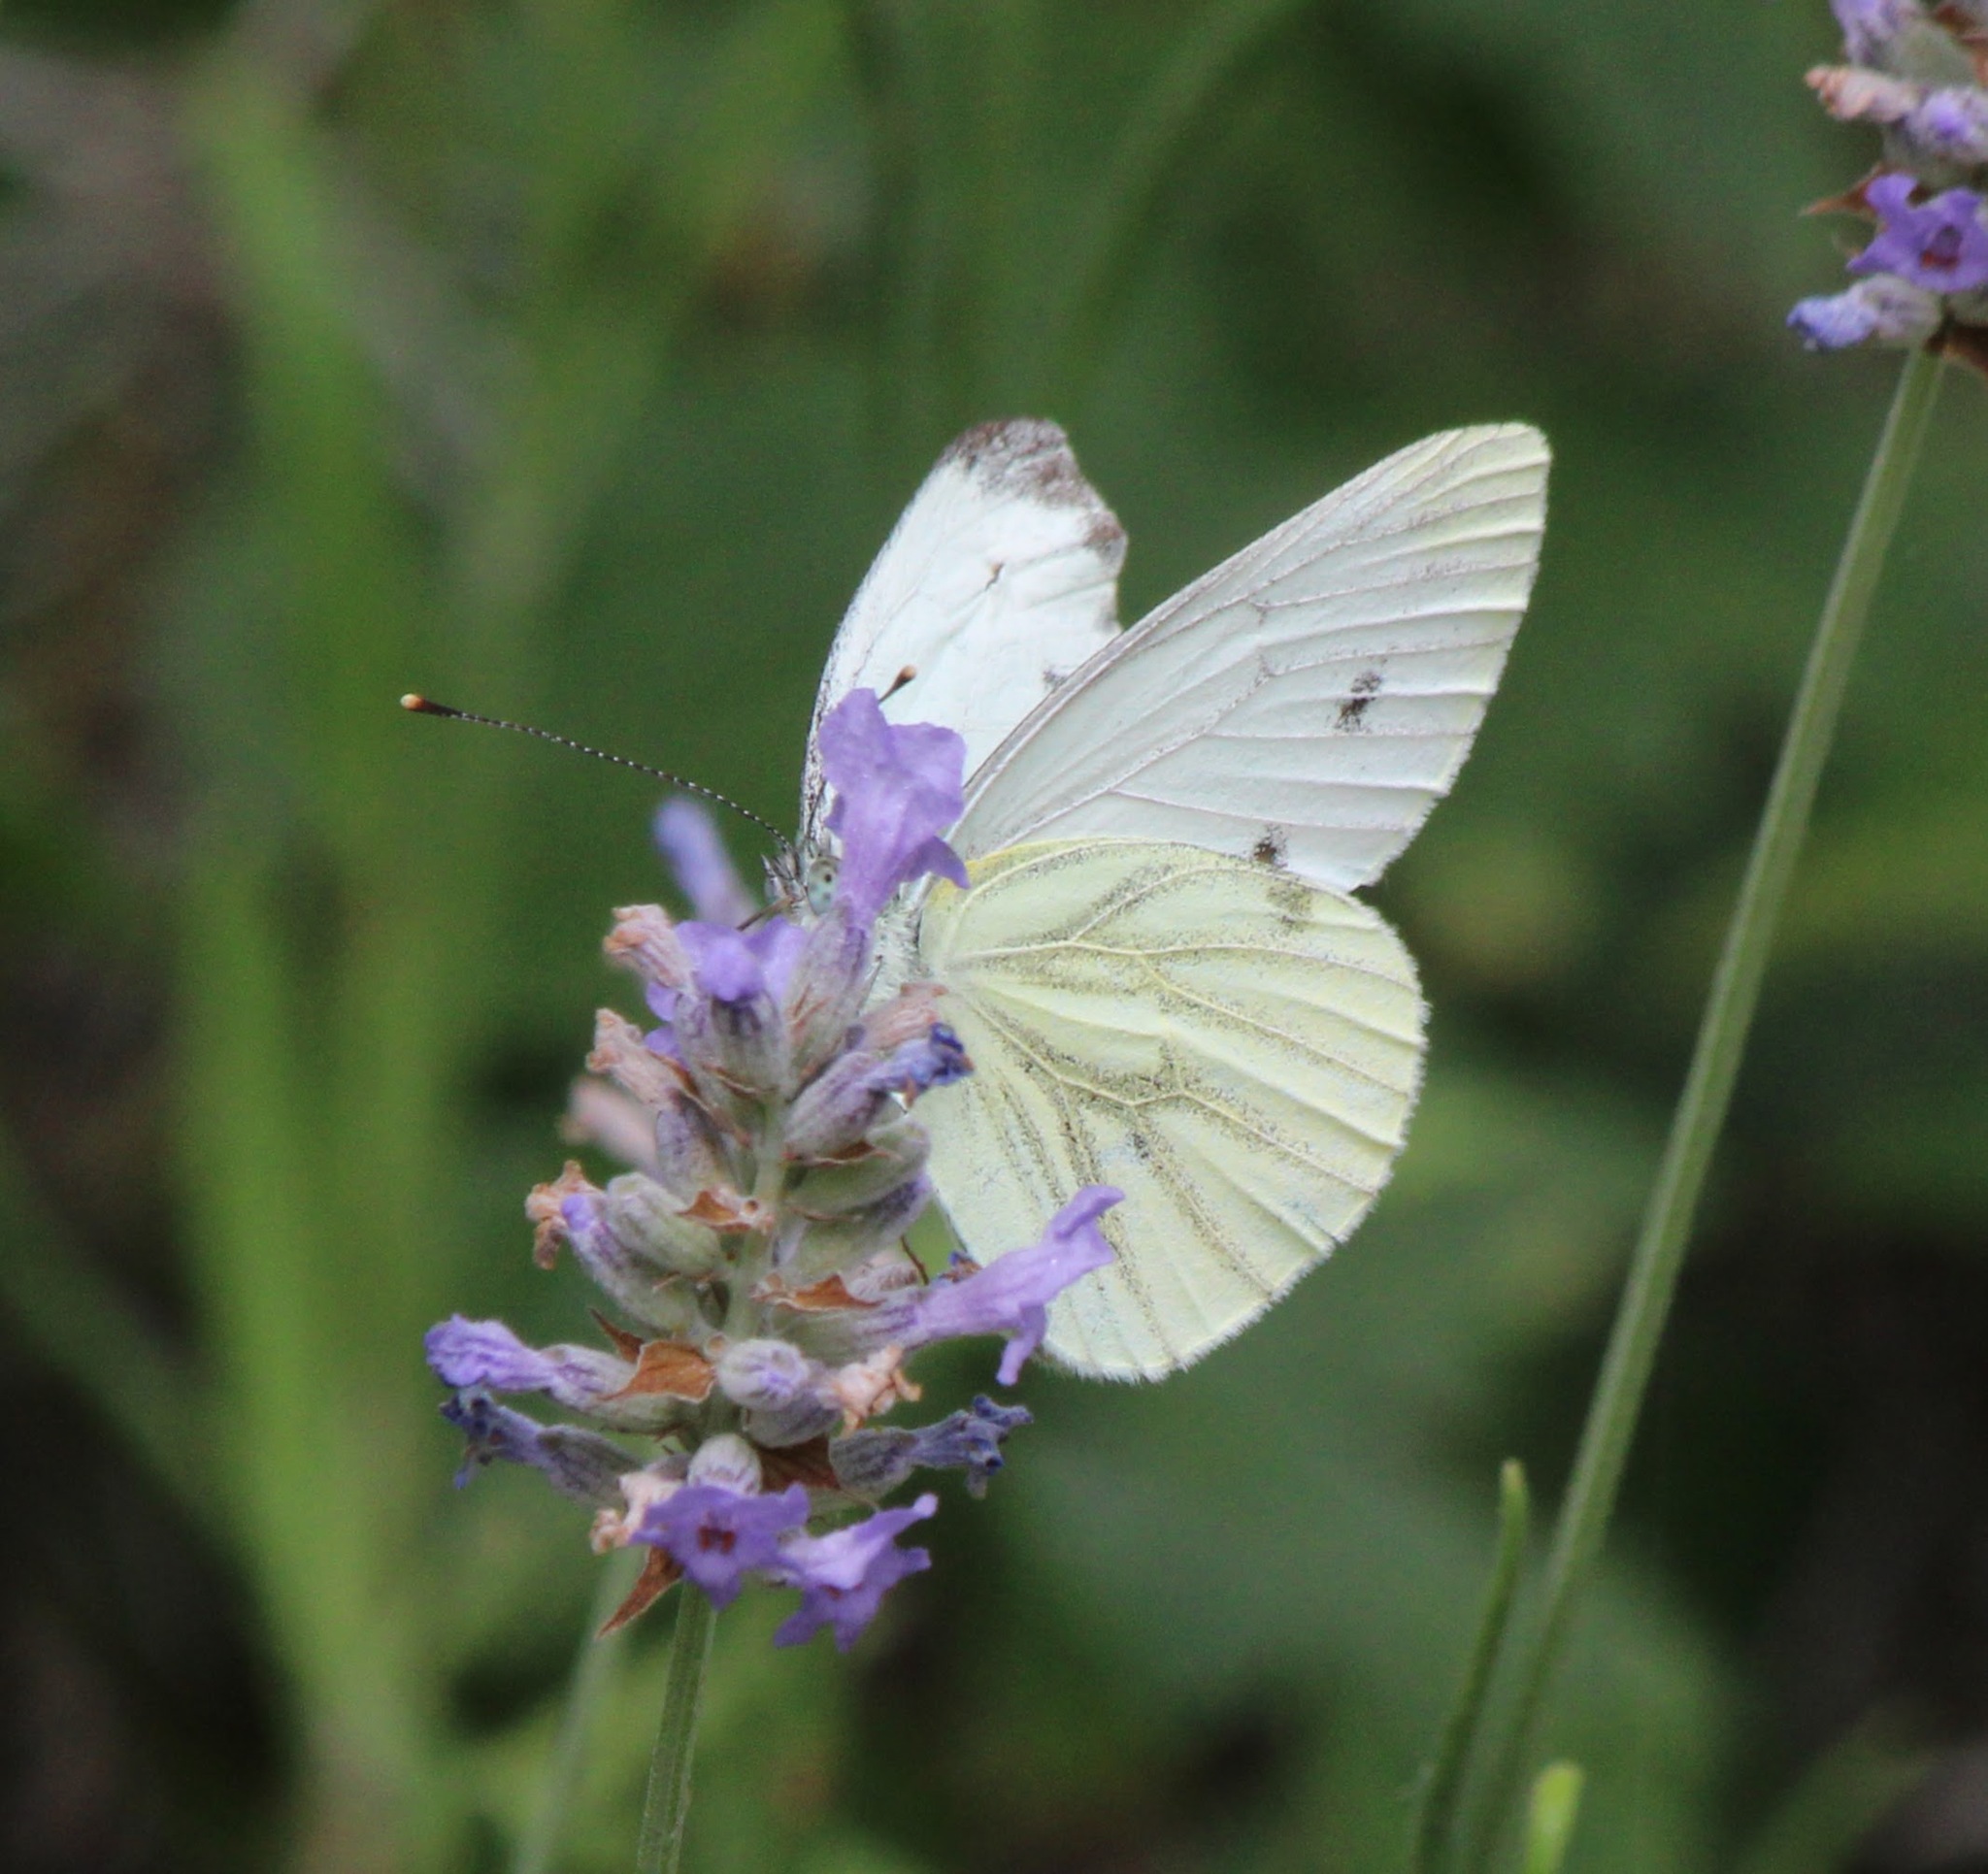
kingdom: Animalia
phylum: Arthropoda
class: Insecta
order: Lepidoptera
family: Pieridae
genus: Pieris
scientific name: Pieris napi
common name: Green-veined white
